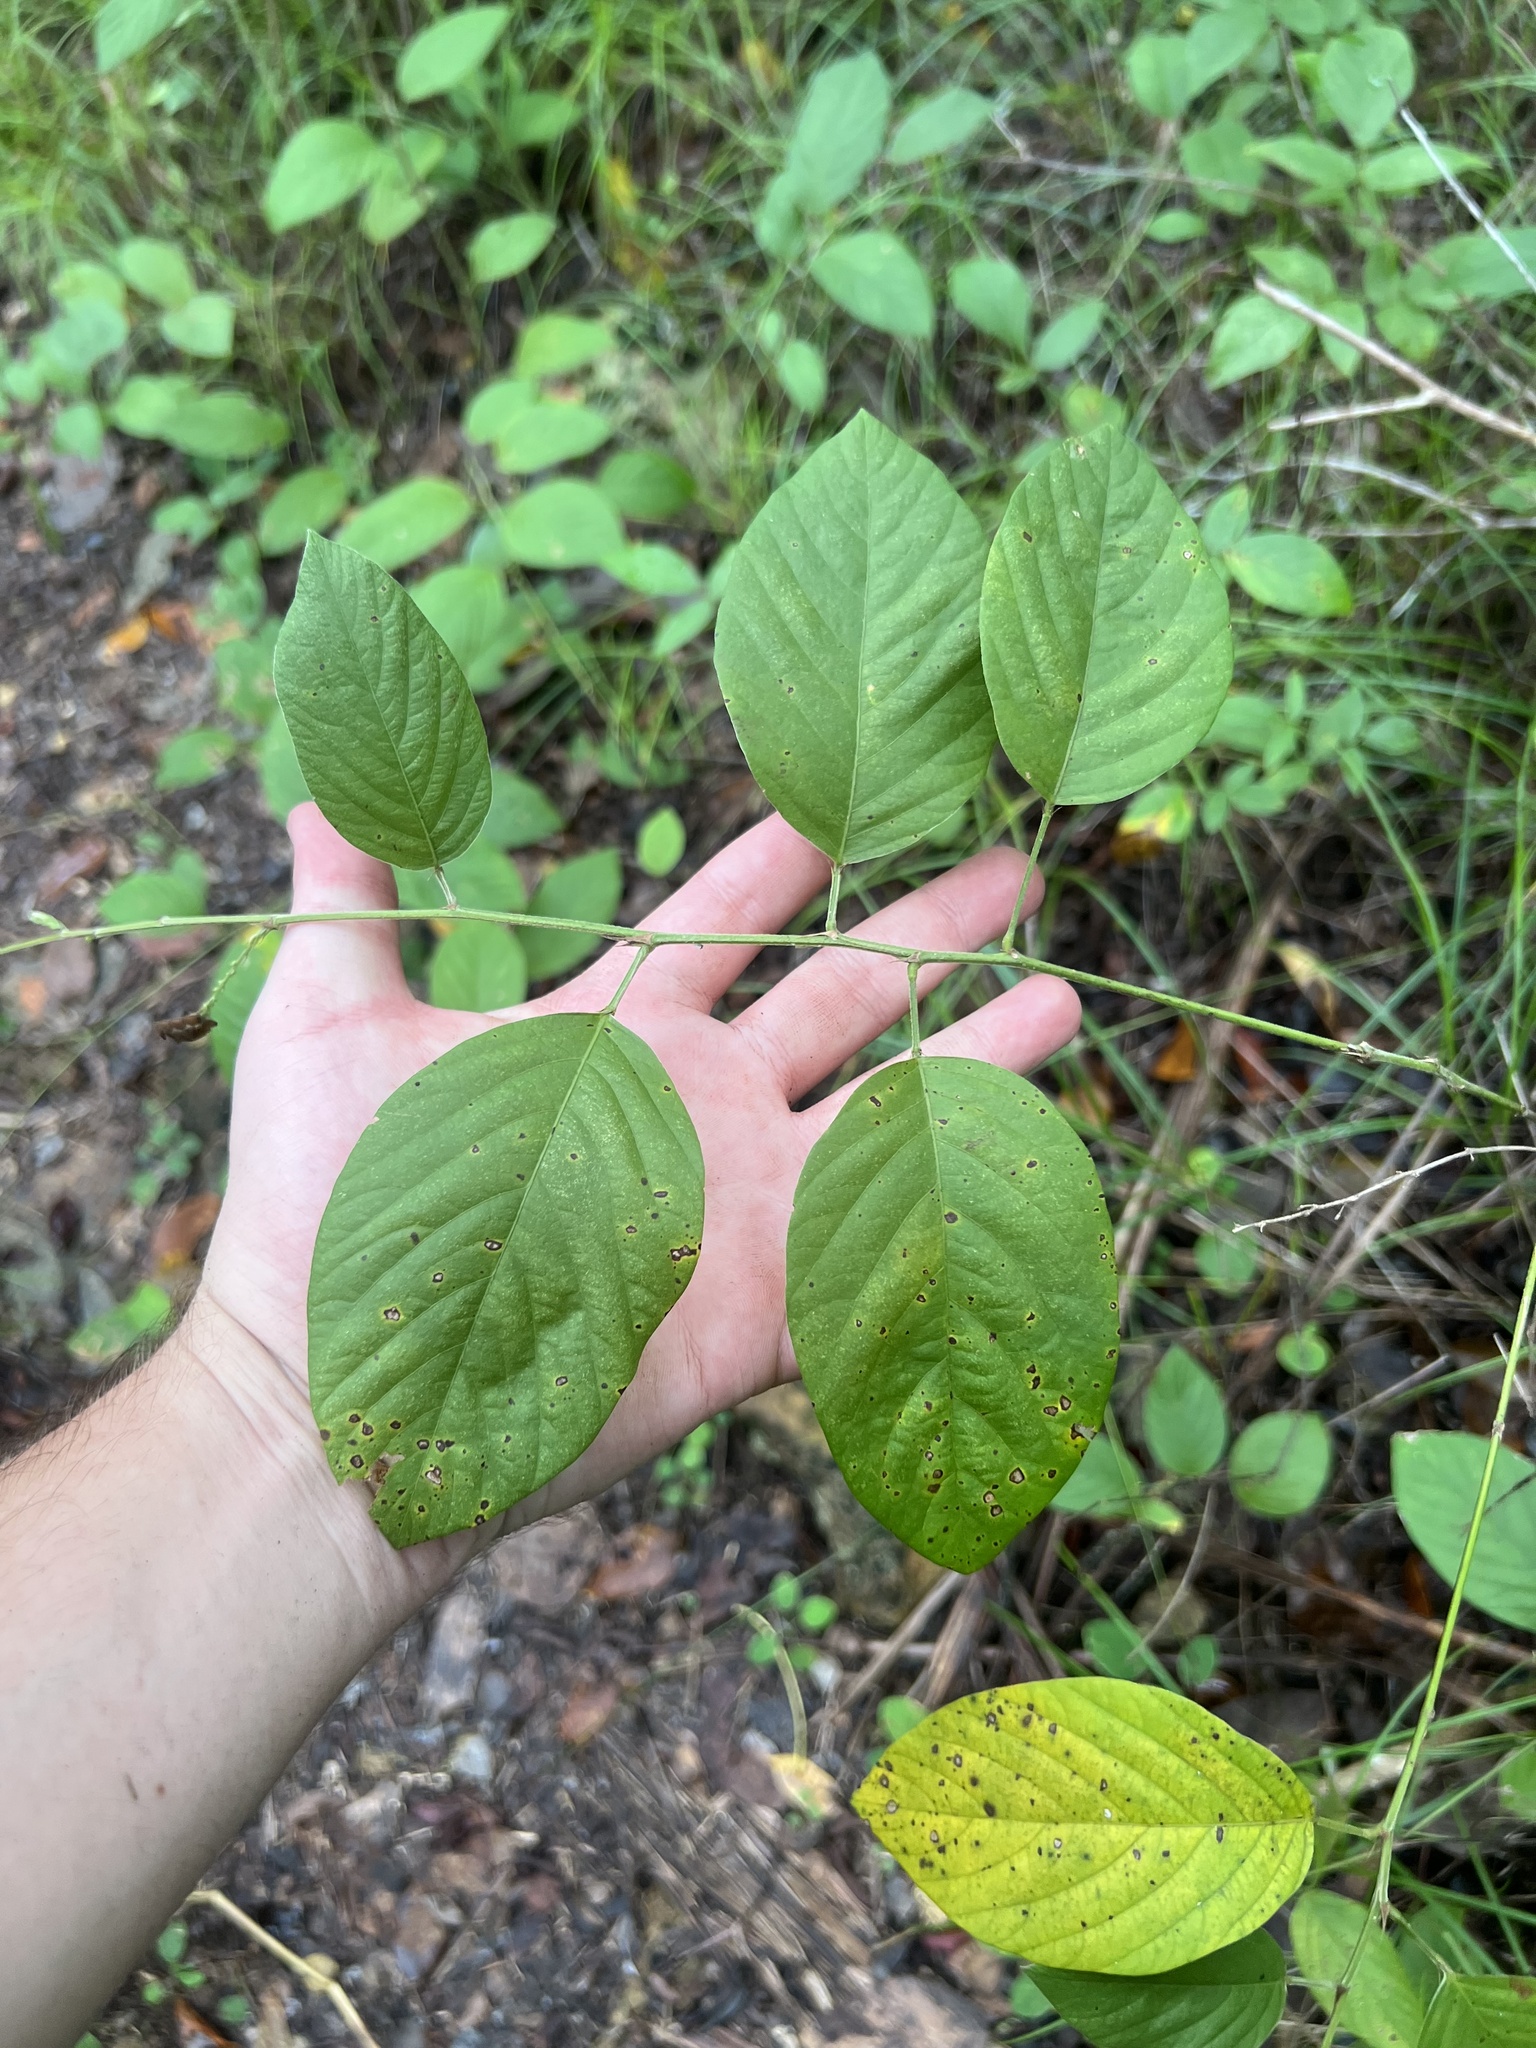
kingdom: Plantae
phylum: Tracheophyta
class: Magnoliopsida
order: Fabales
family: Fabaceae
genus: Desmodium
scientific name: Desmodium incanum
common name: Tickclover
